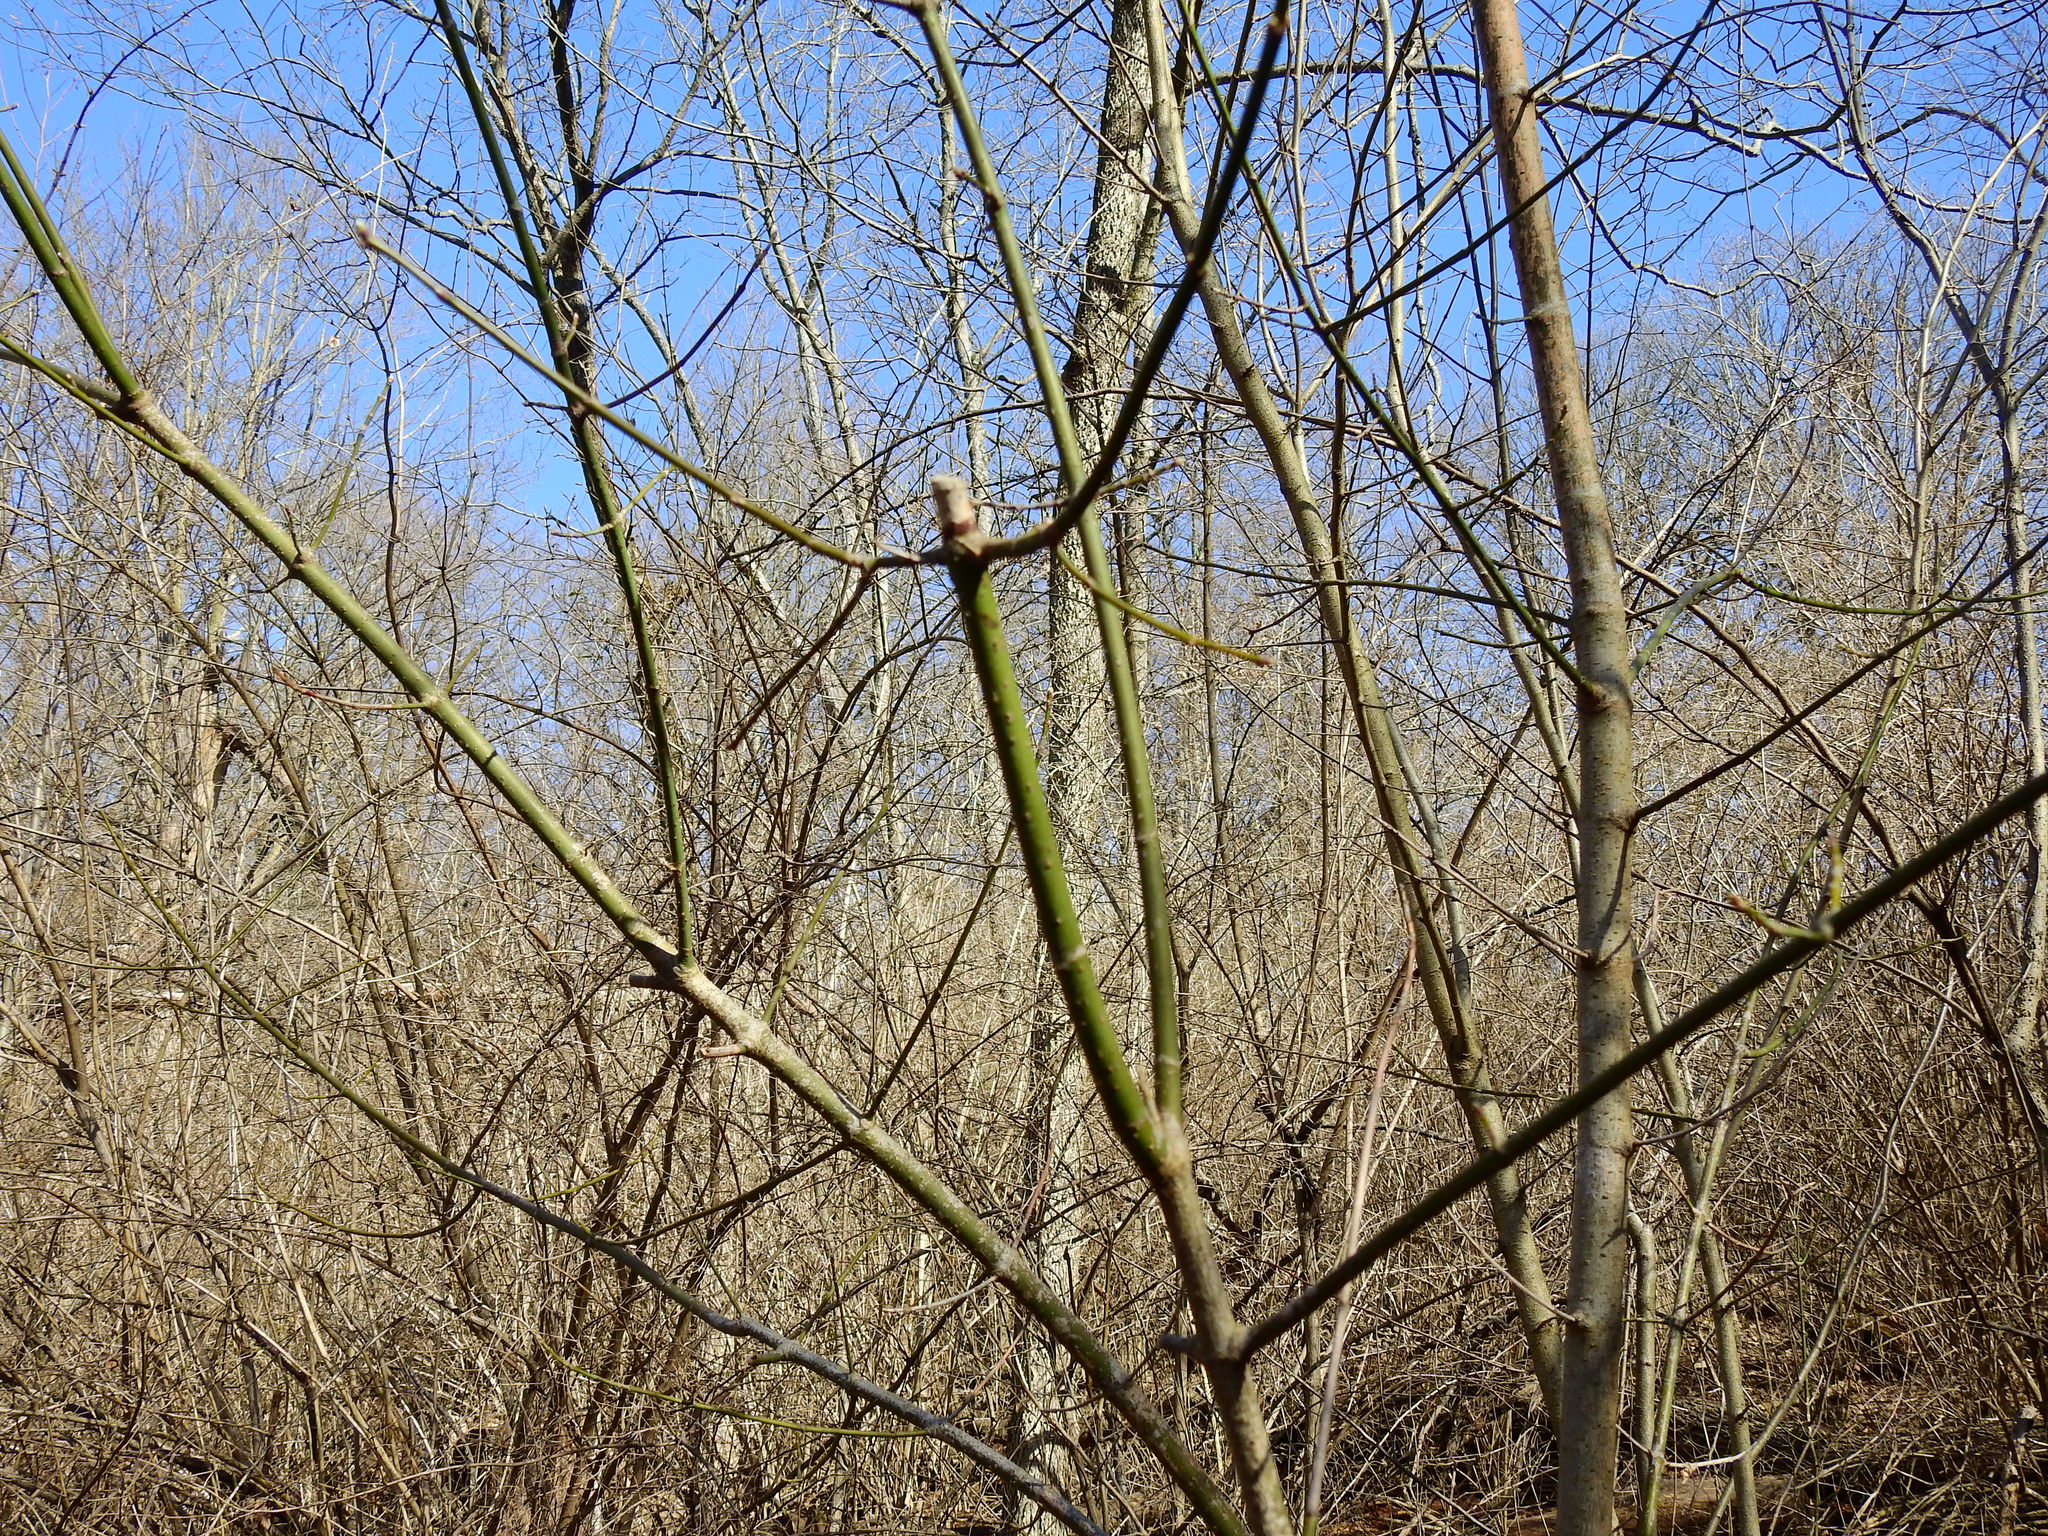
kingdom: Plantae
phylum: Tracheophyta
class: Magnoliopsida
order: Sapindales
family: Sapindaceae
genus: Acer
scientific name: Acer negundo
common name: Ashleaf maple
